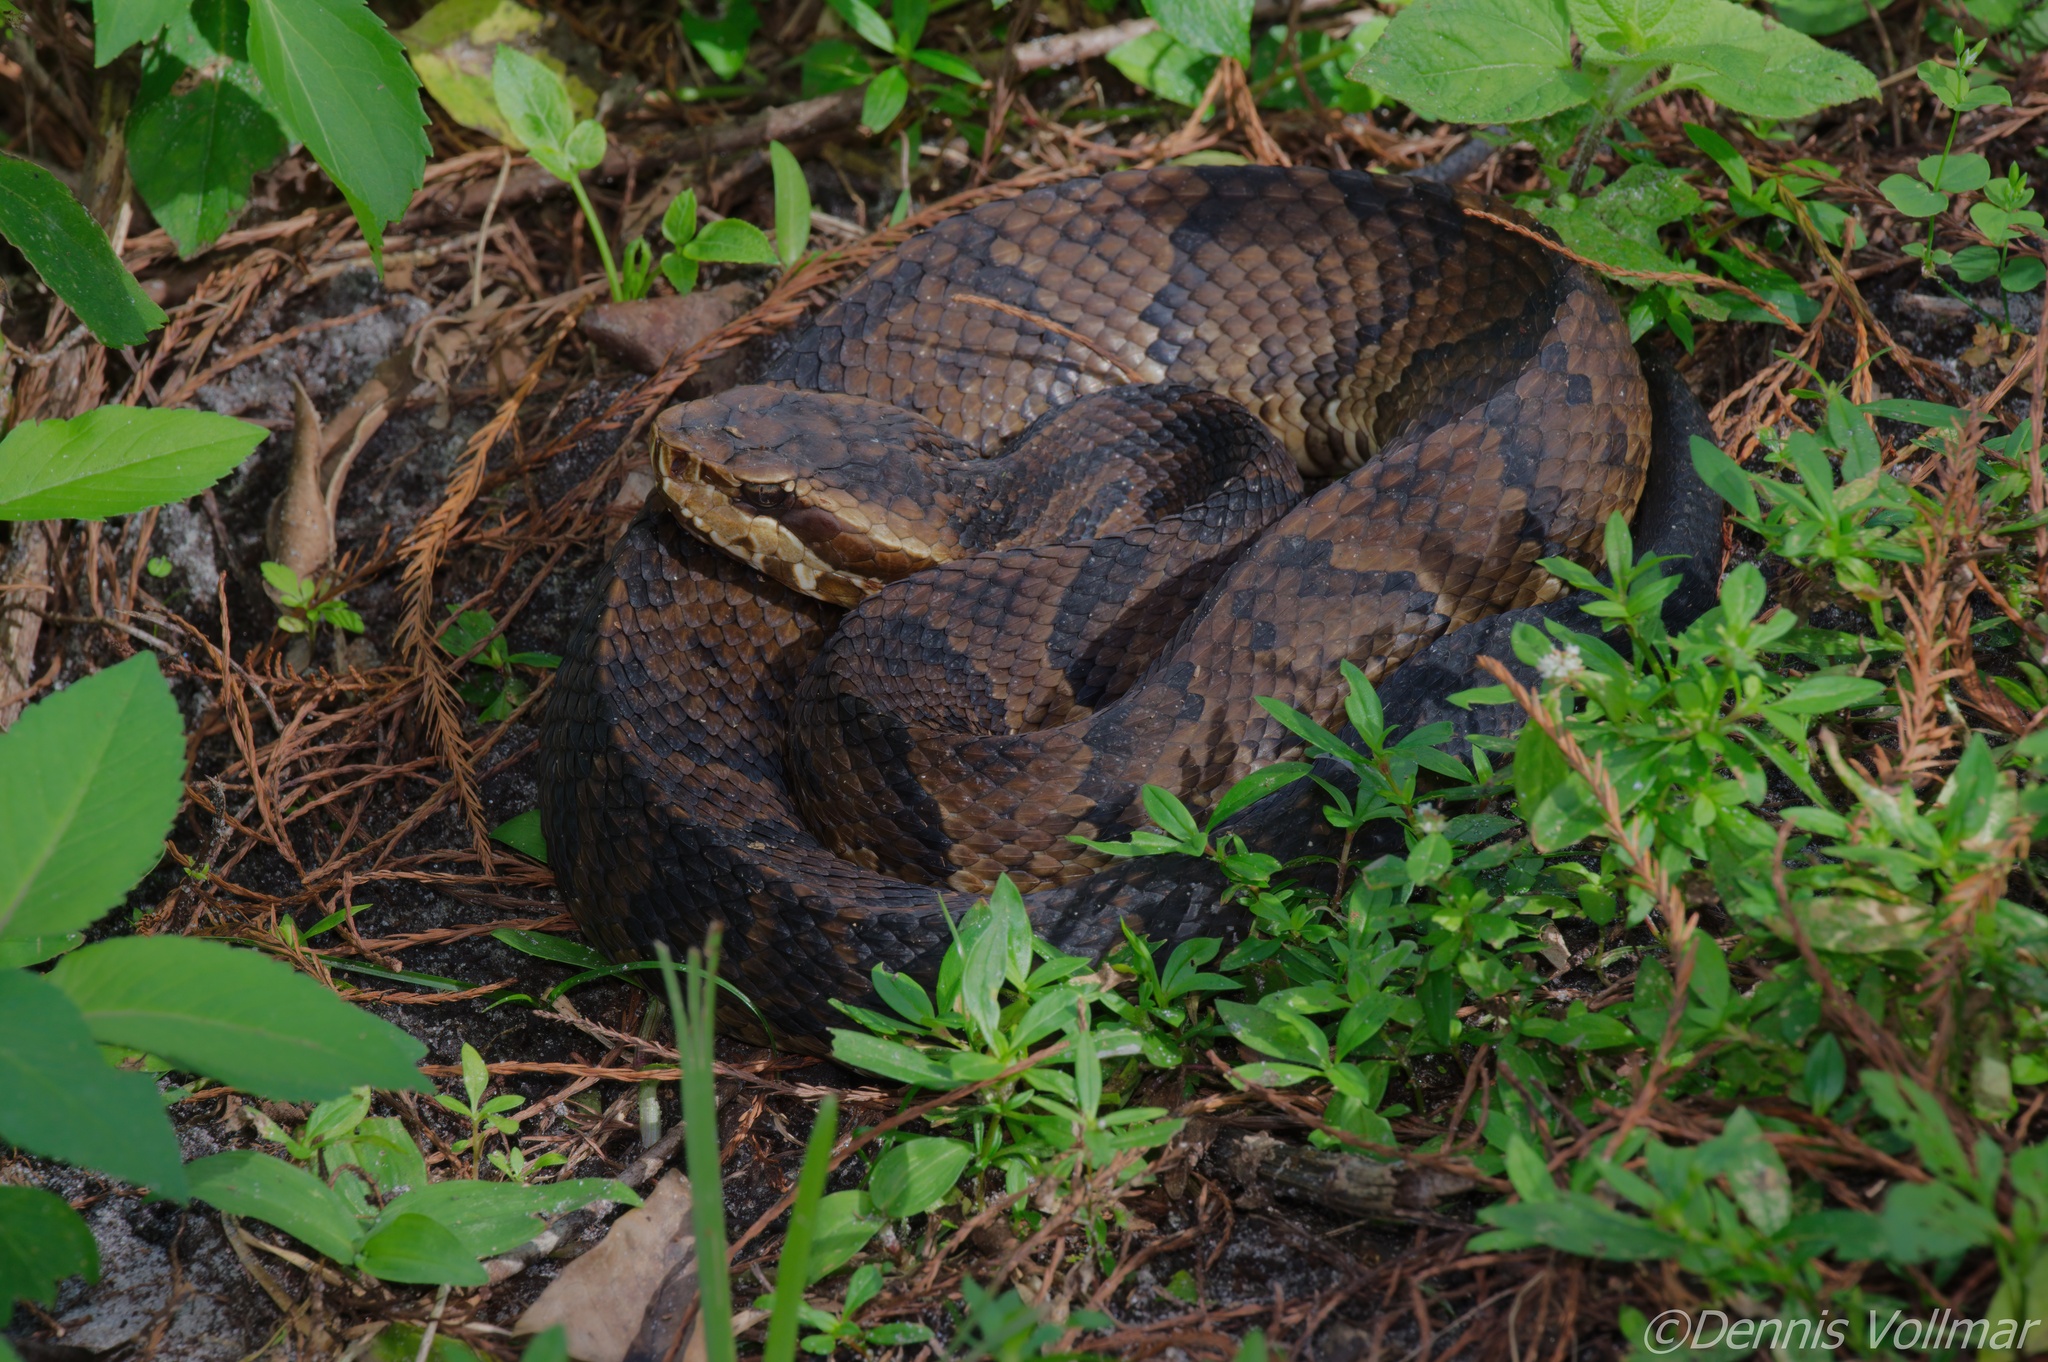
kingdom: Animalia
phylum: Chordata
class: Squamata
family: Viperidae
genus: Agkistrodon
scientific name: Agkistrodon conanti
